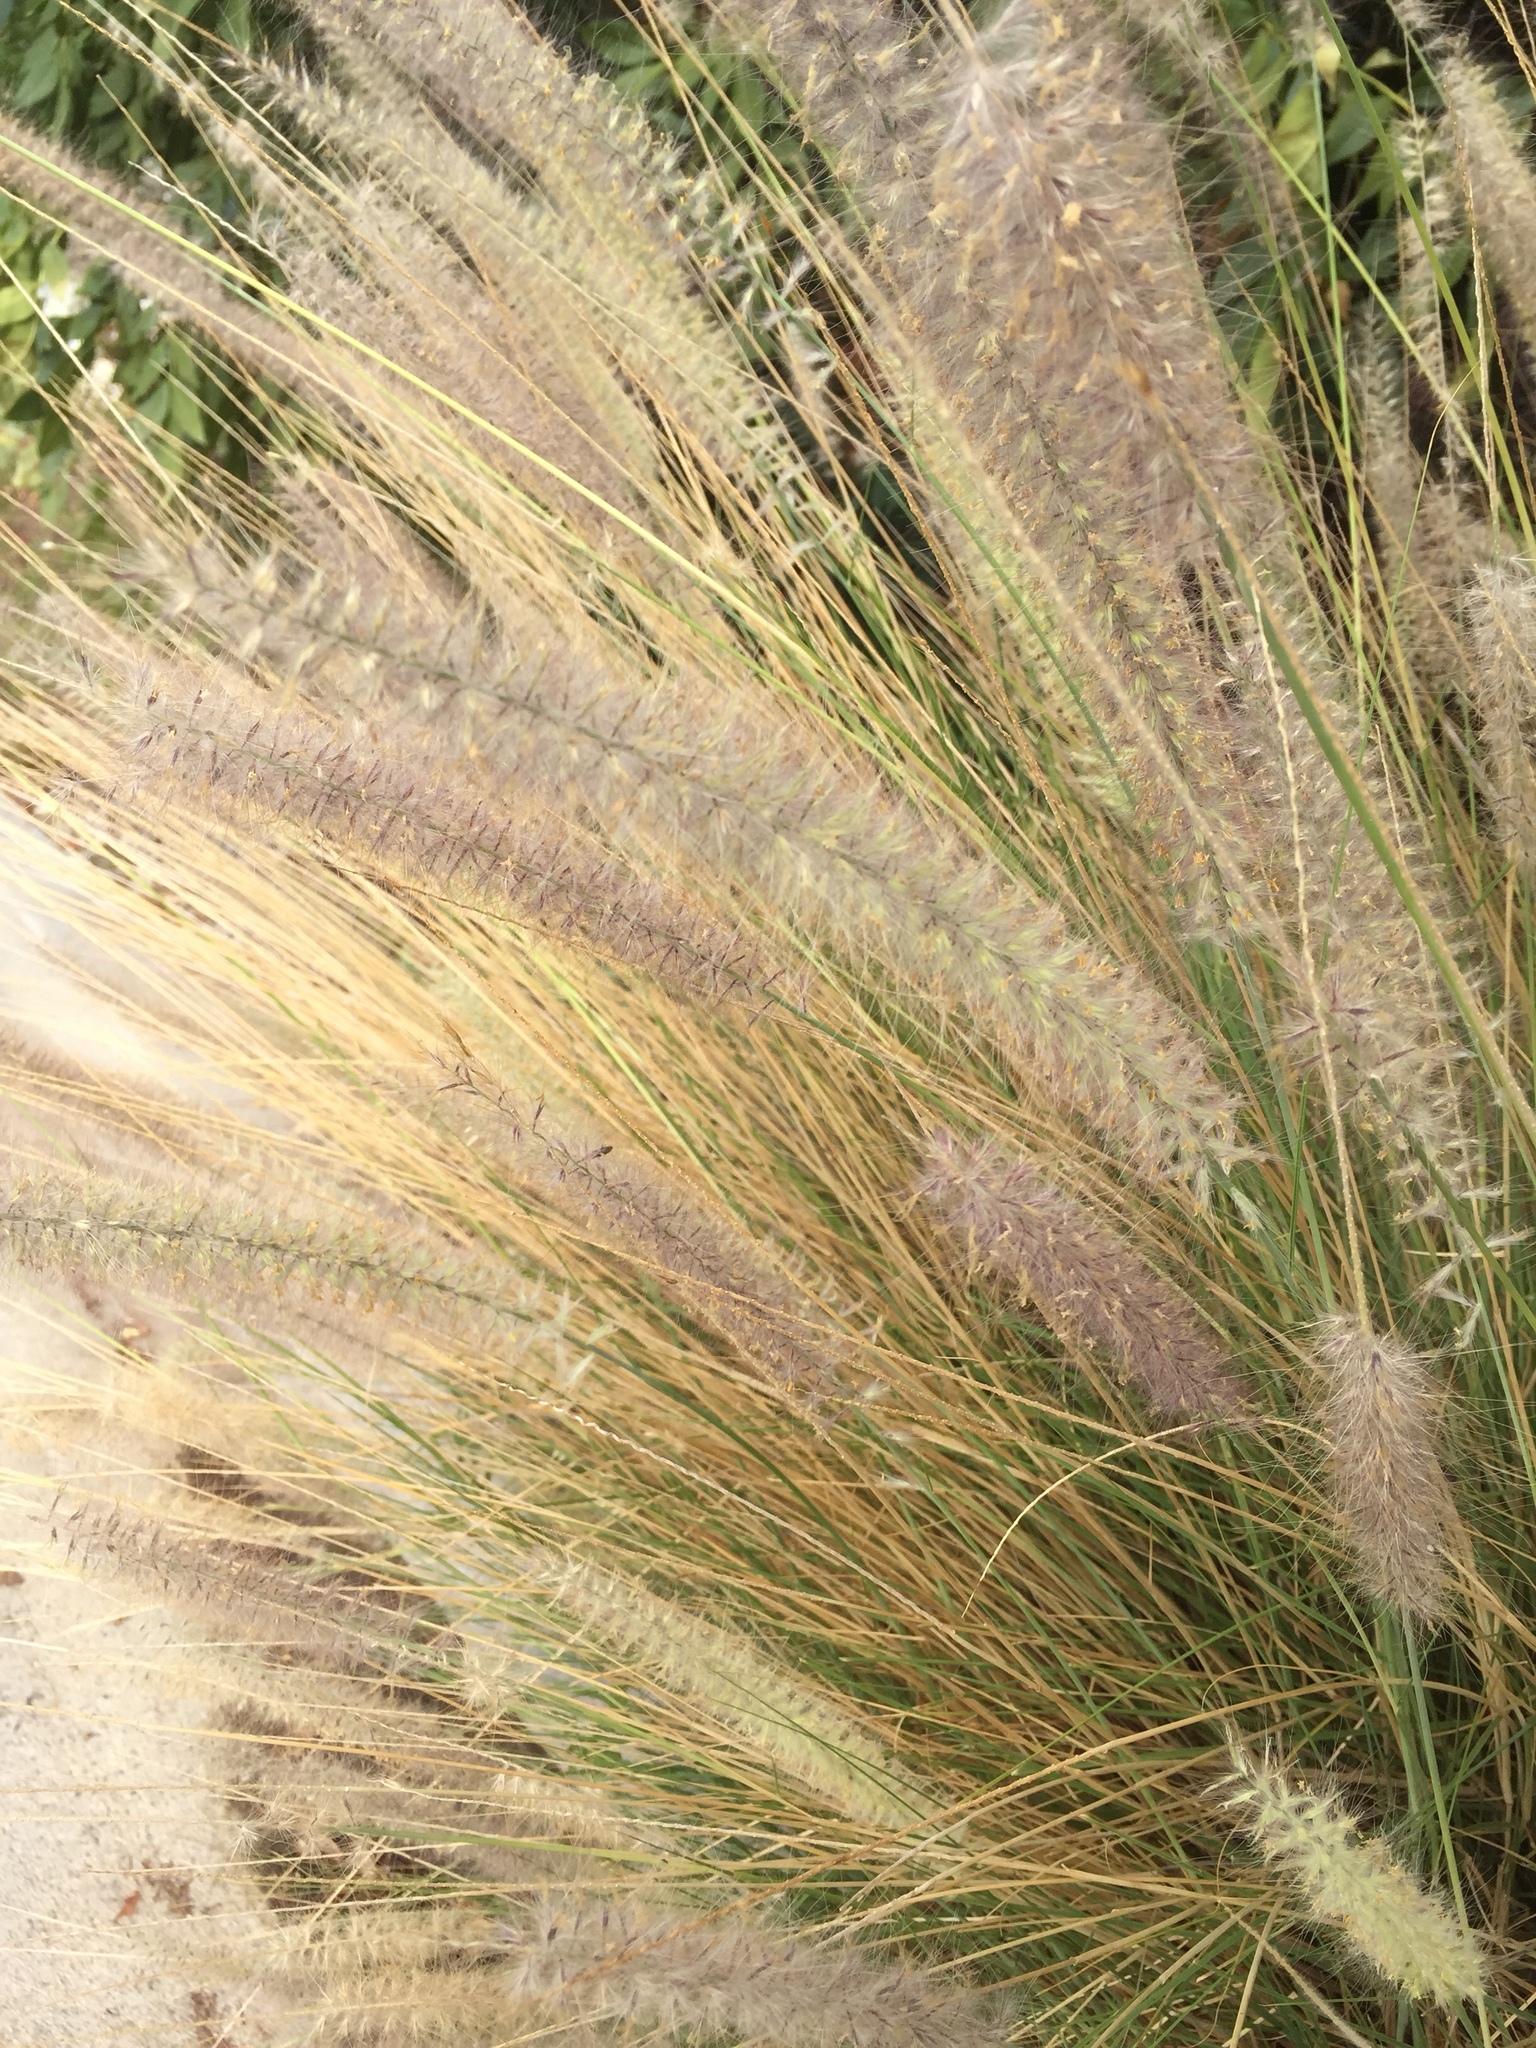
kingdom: Plantae
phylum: Tracheophyta
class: Liliopsida
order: Poales
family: Poaceae
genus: Cenchrus
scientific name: Cenchrus setaceus
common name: Crimson fountaingrass
